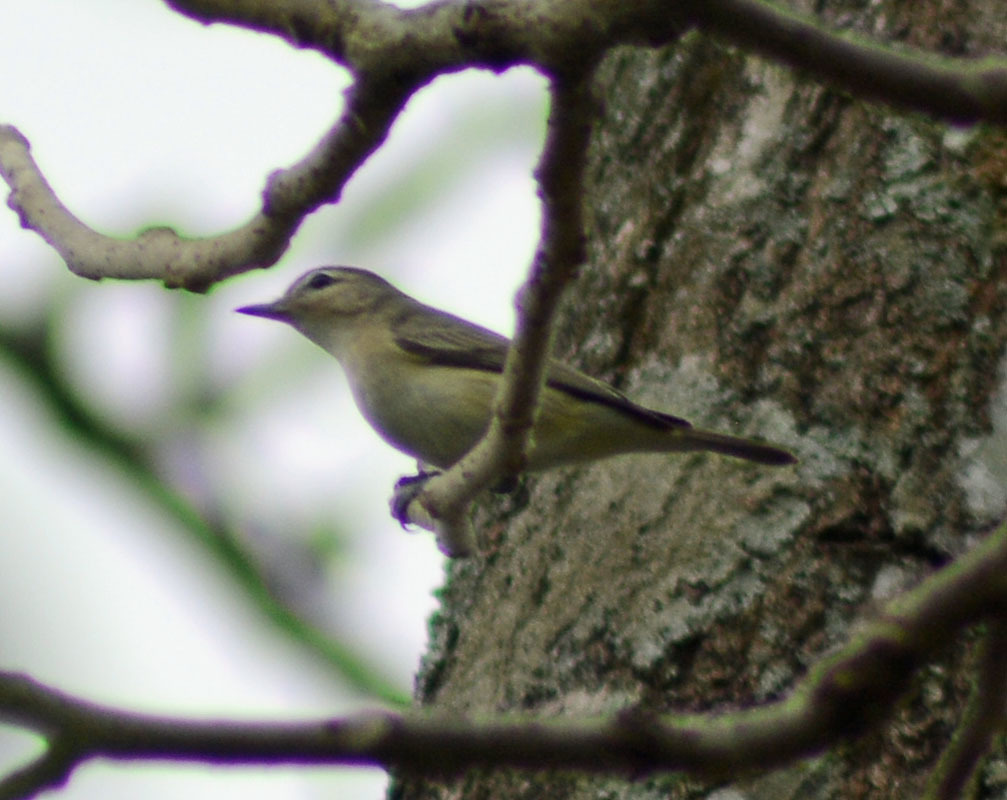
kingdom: Animalia
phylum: Chordata
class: Aves
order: Passeriformes
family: Vireonidae
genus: Vireo
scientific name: Vireo gilvus
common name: Warbling vireo
